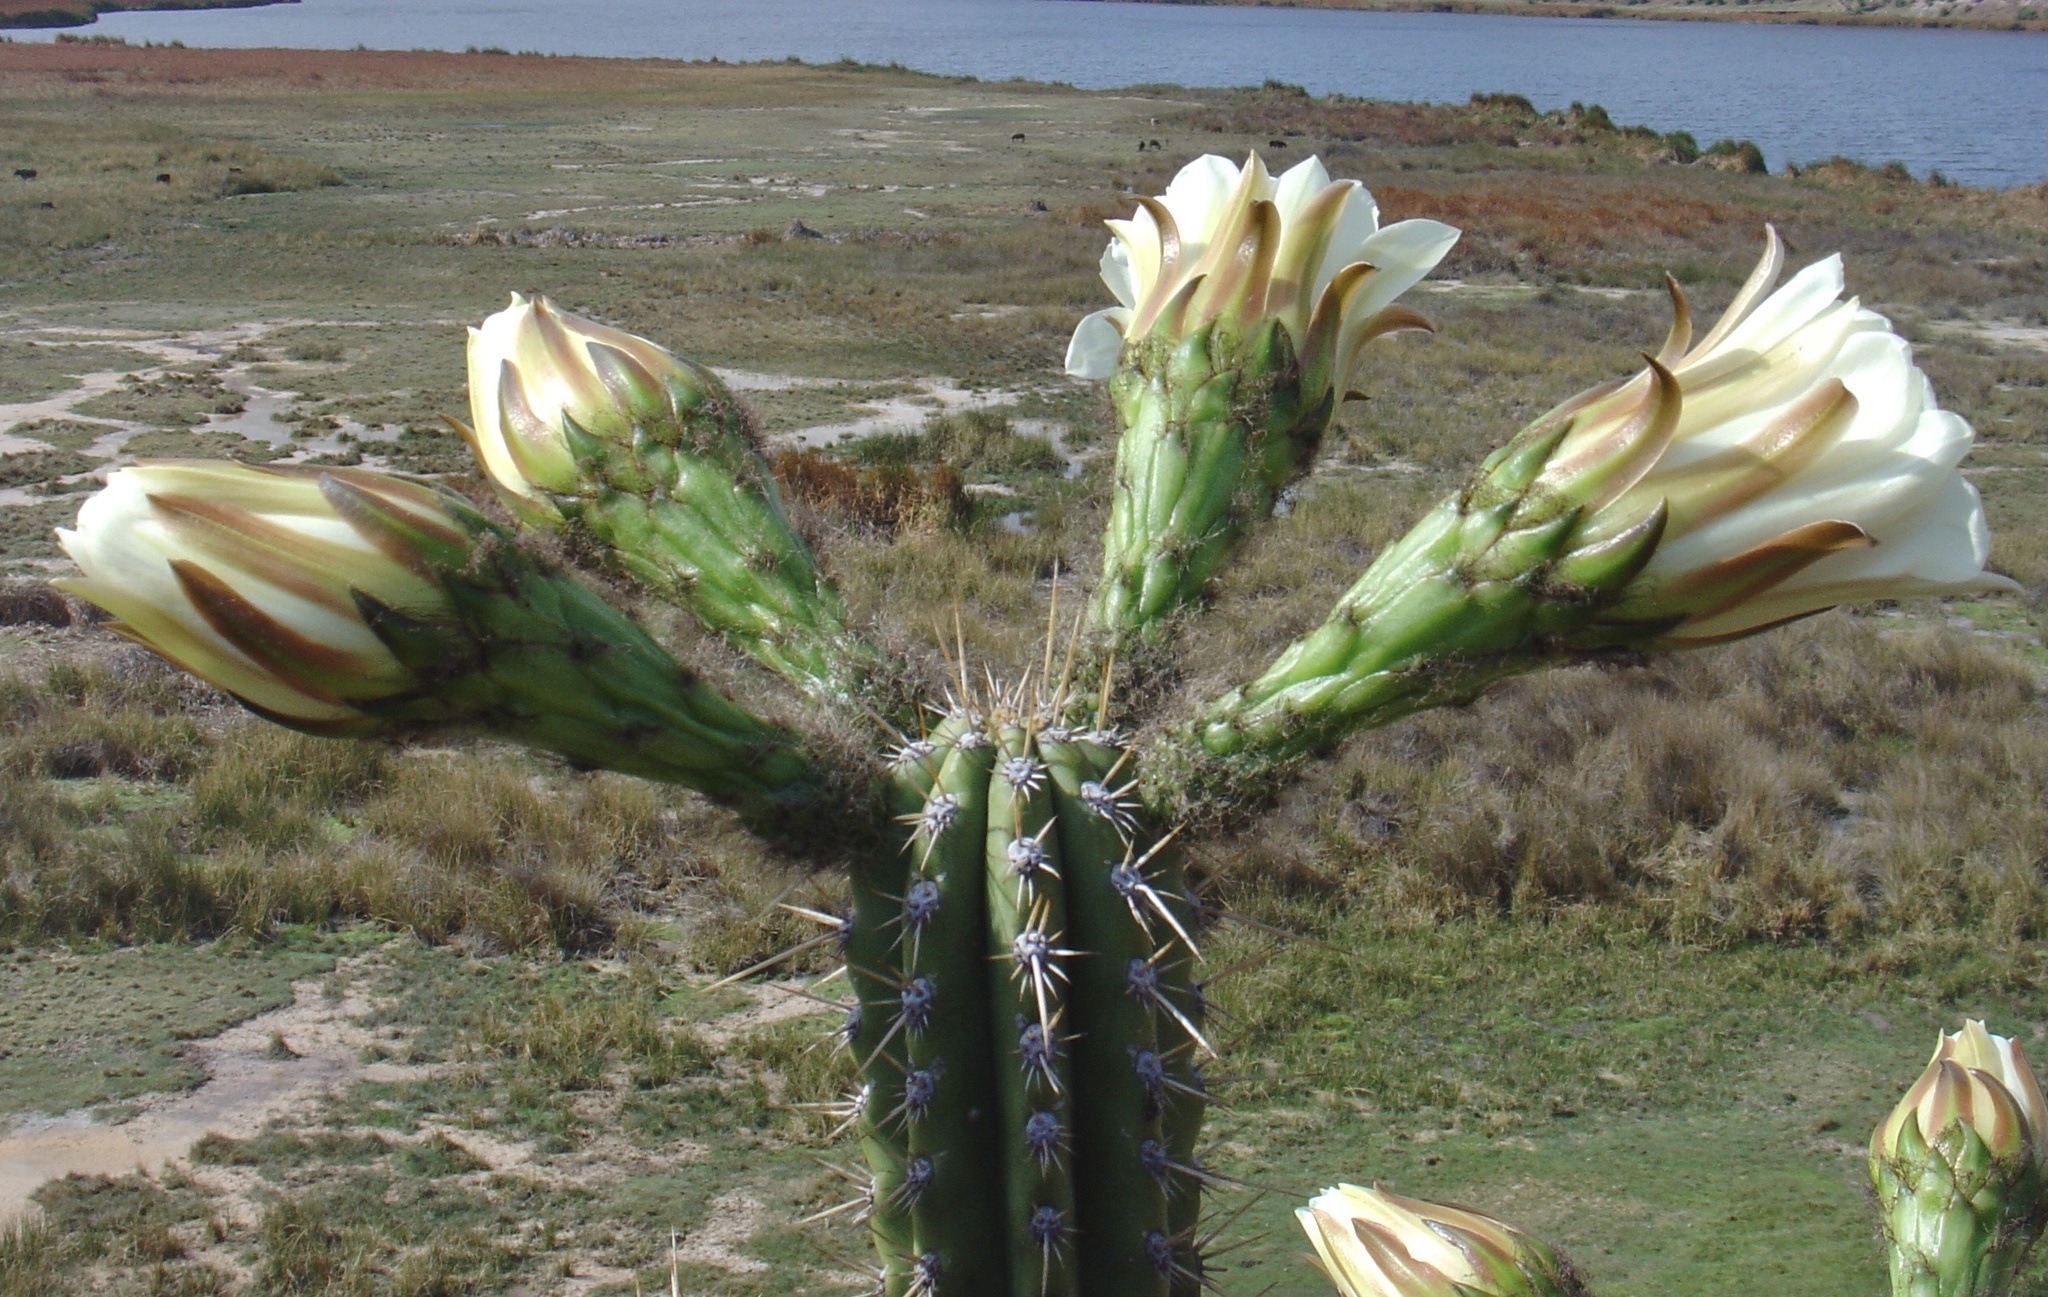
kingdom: Plantae
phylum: Tracheophyta
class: Magnoliopsida
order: Caryophyllales
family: Cactaceae
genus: Trichocereus
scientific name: Trichocereus cuzcoensis
